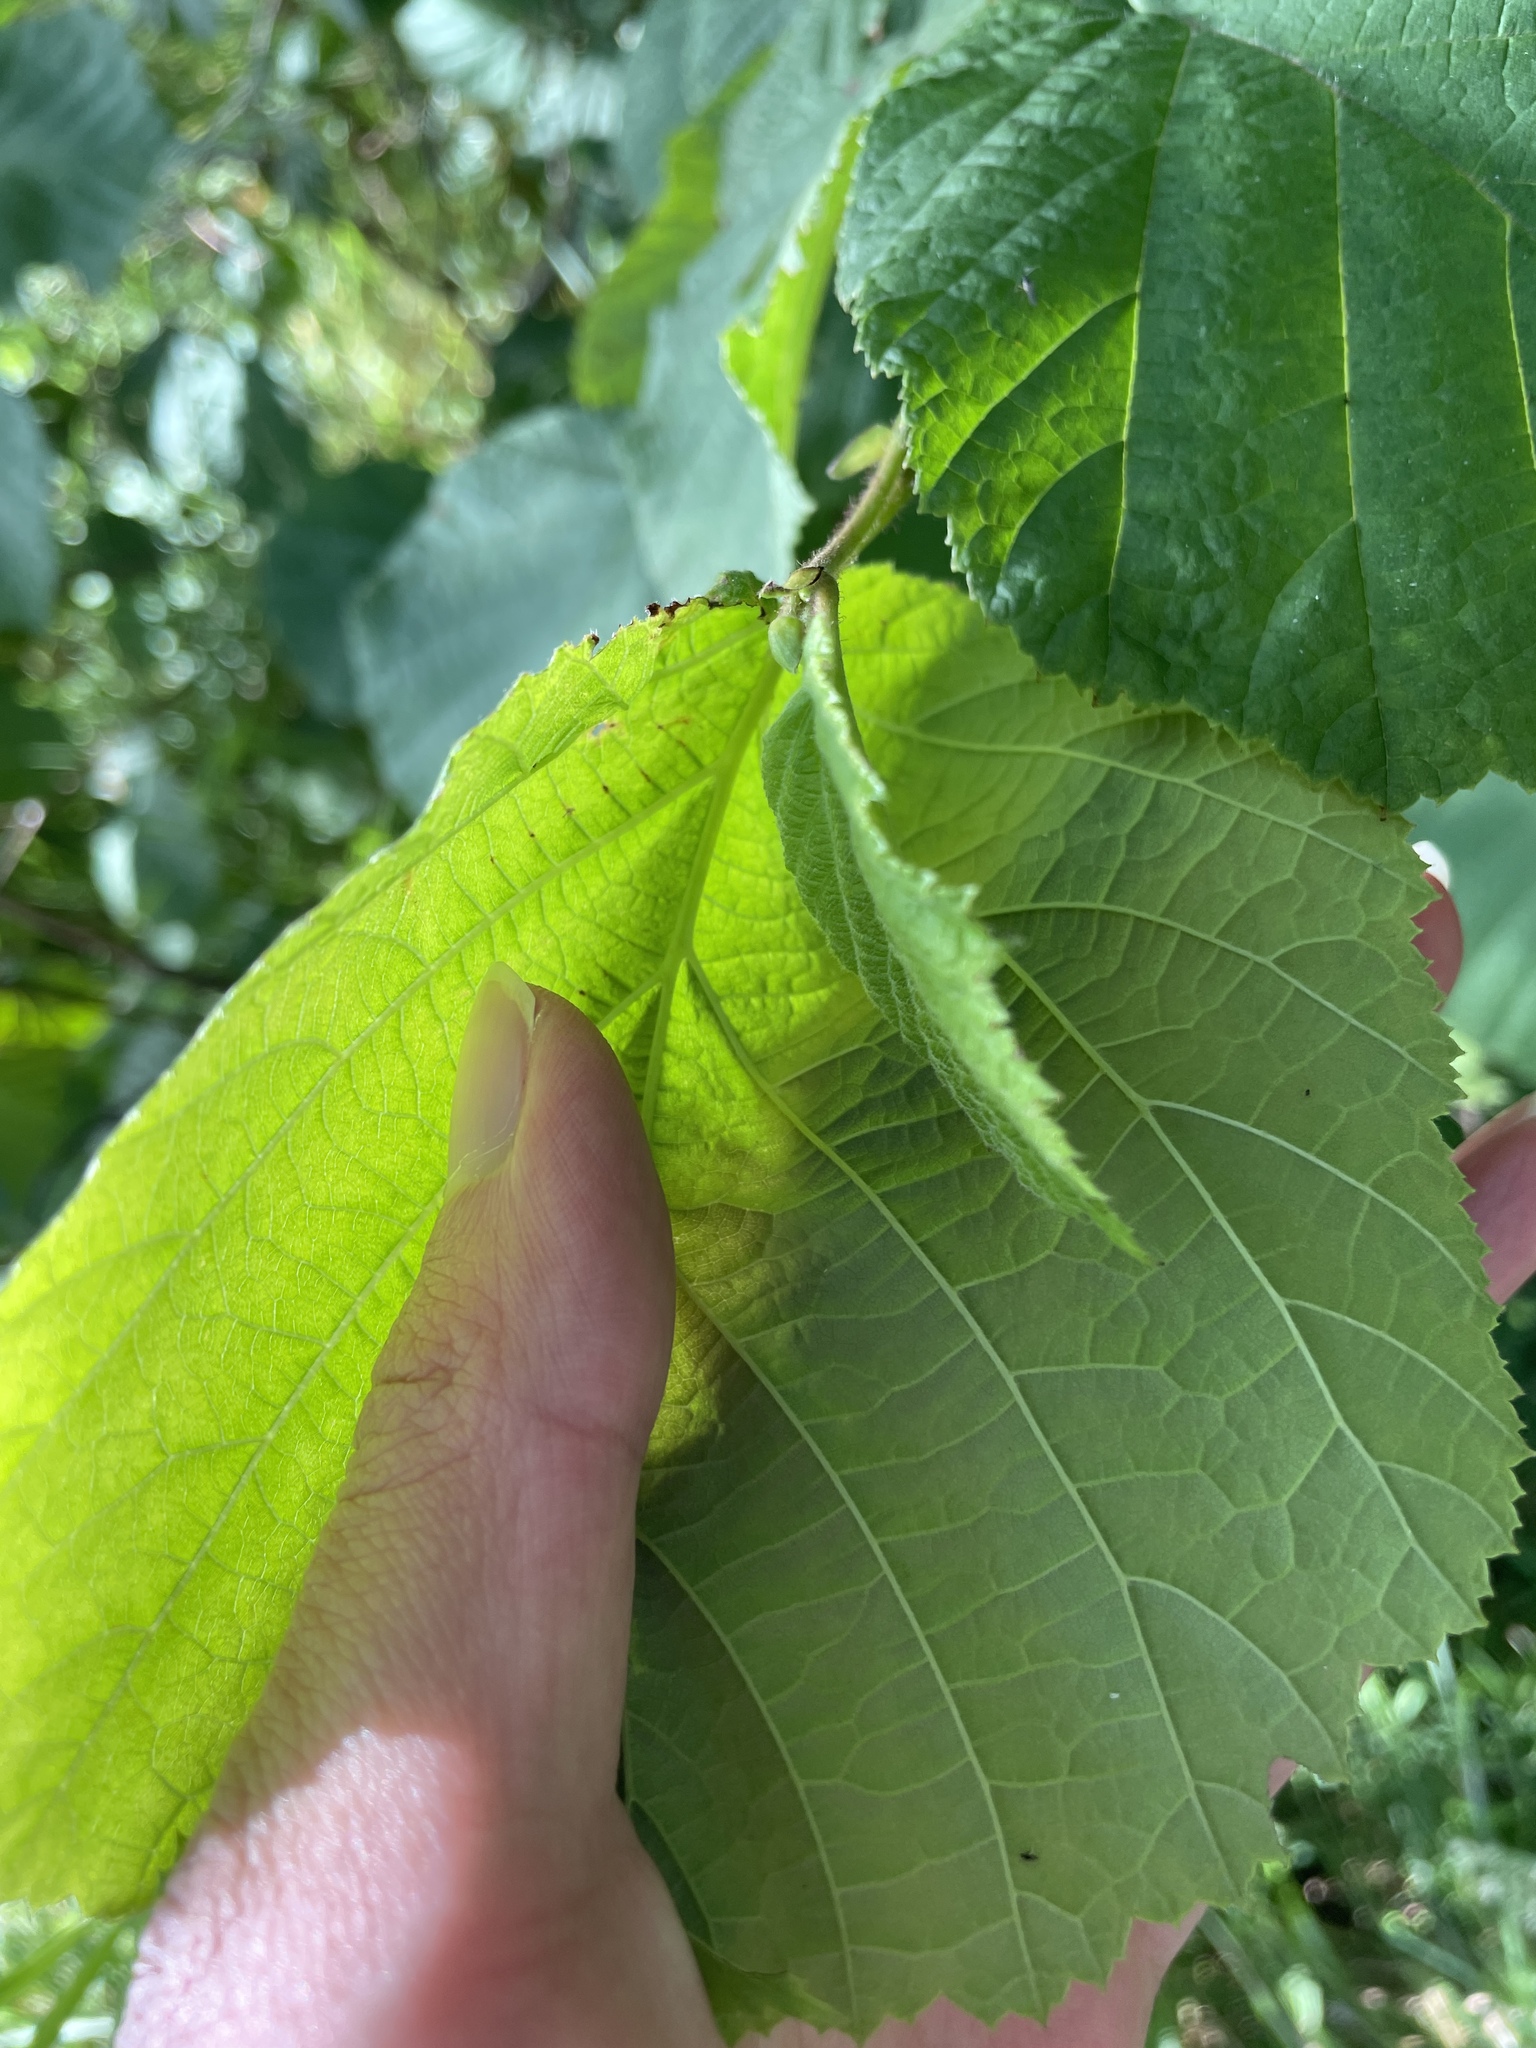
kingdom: Plantae
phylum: Tracheophyta
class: Magnoliopsida
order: Fagales
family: Betulaceae
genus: Corylus
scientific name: Corylus avellana
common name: European hazel
